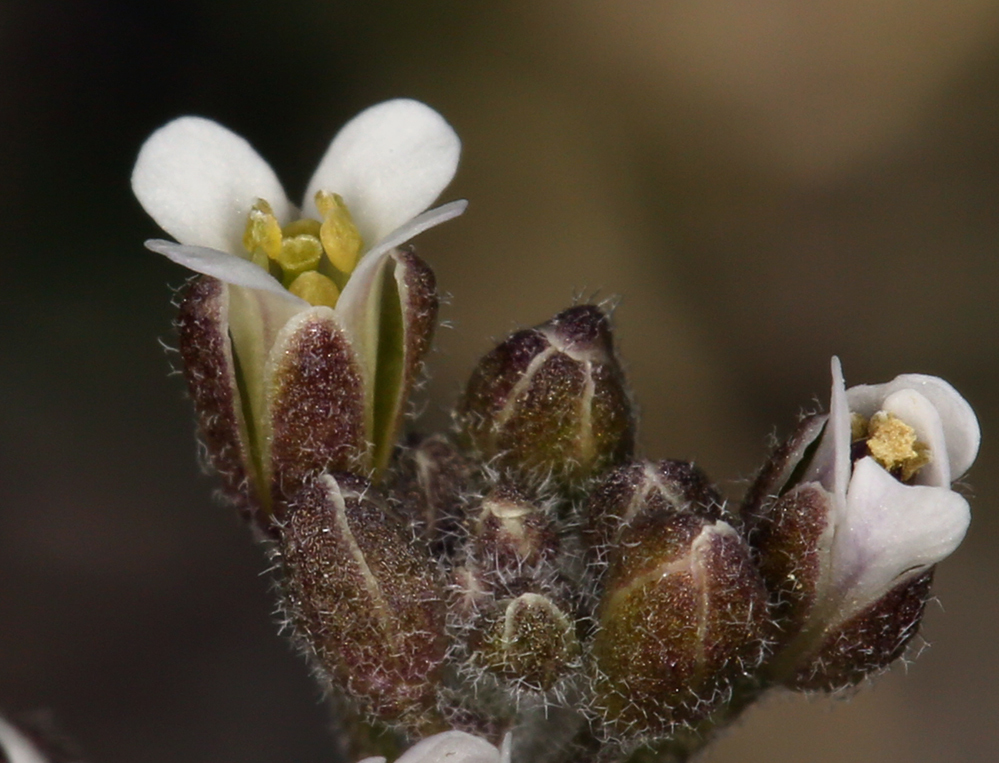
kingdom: Plantae
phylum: Tracheophyta
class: Magnoliopsida
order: Brassicales
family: Brassicaceae
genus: Crucihimalaya
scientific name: Crucihimalaya virgata
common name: Rod halimolobos
